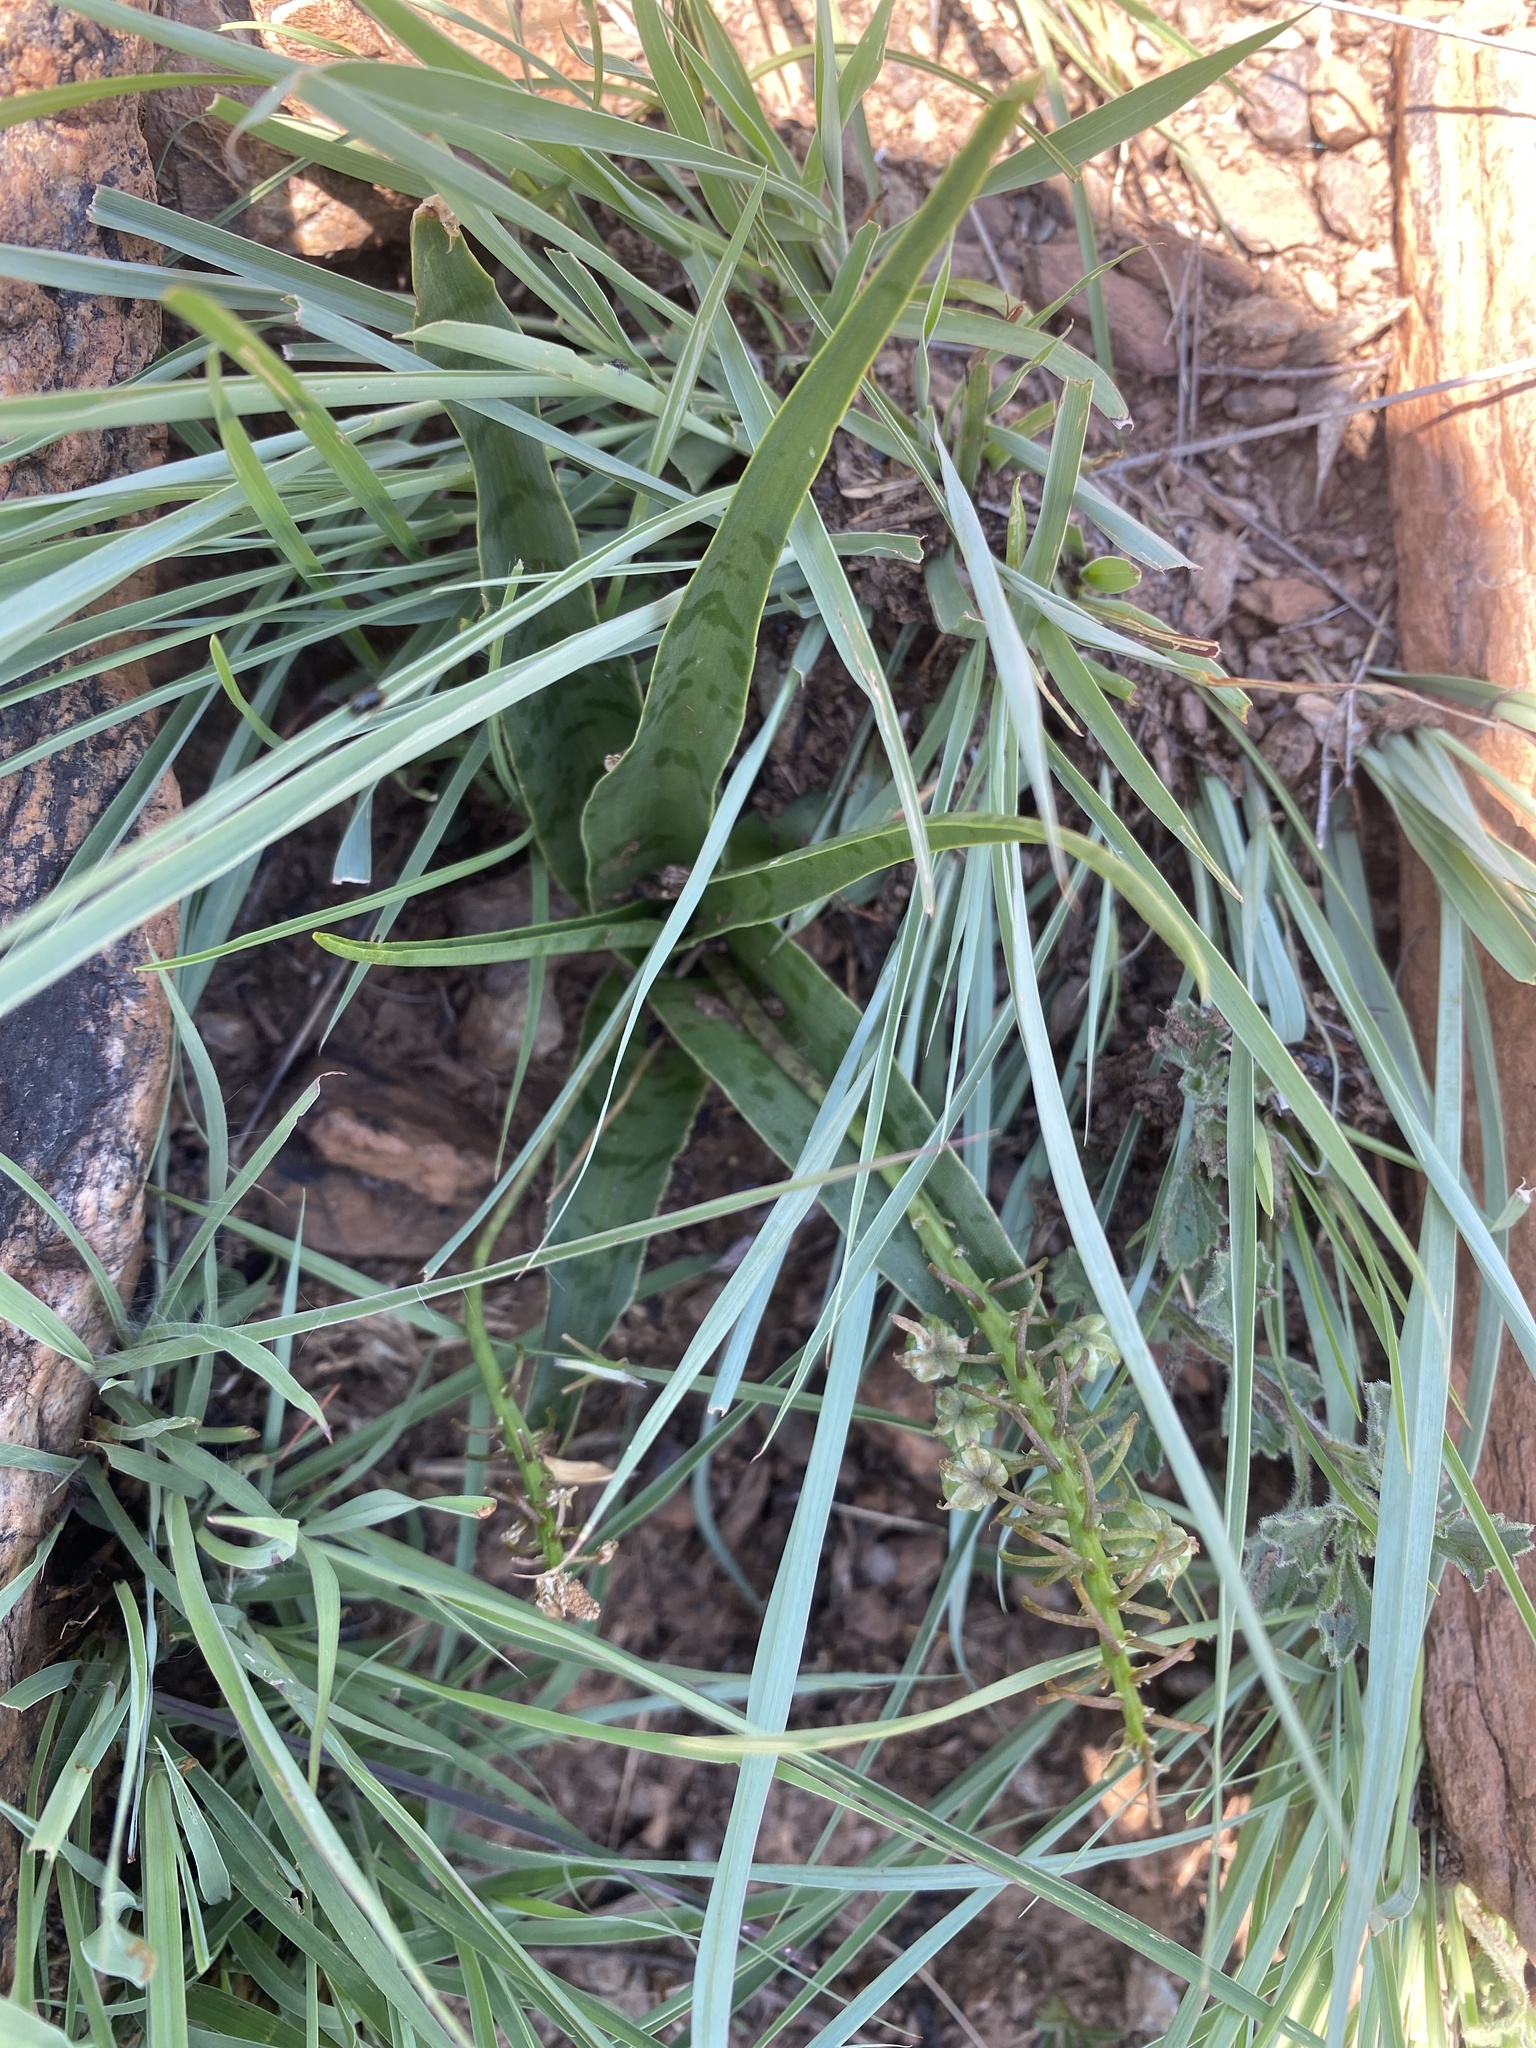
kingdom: Plantae
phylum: Tracheophyta
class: Liliopsida
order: Asparagales
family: Asparagaceae
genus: Ledebouria
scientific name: Ledebouria luteola
